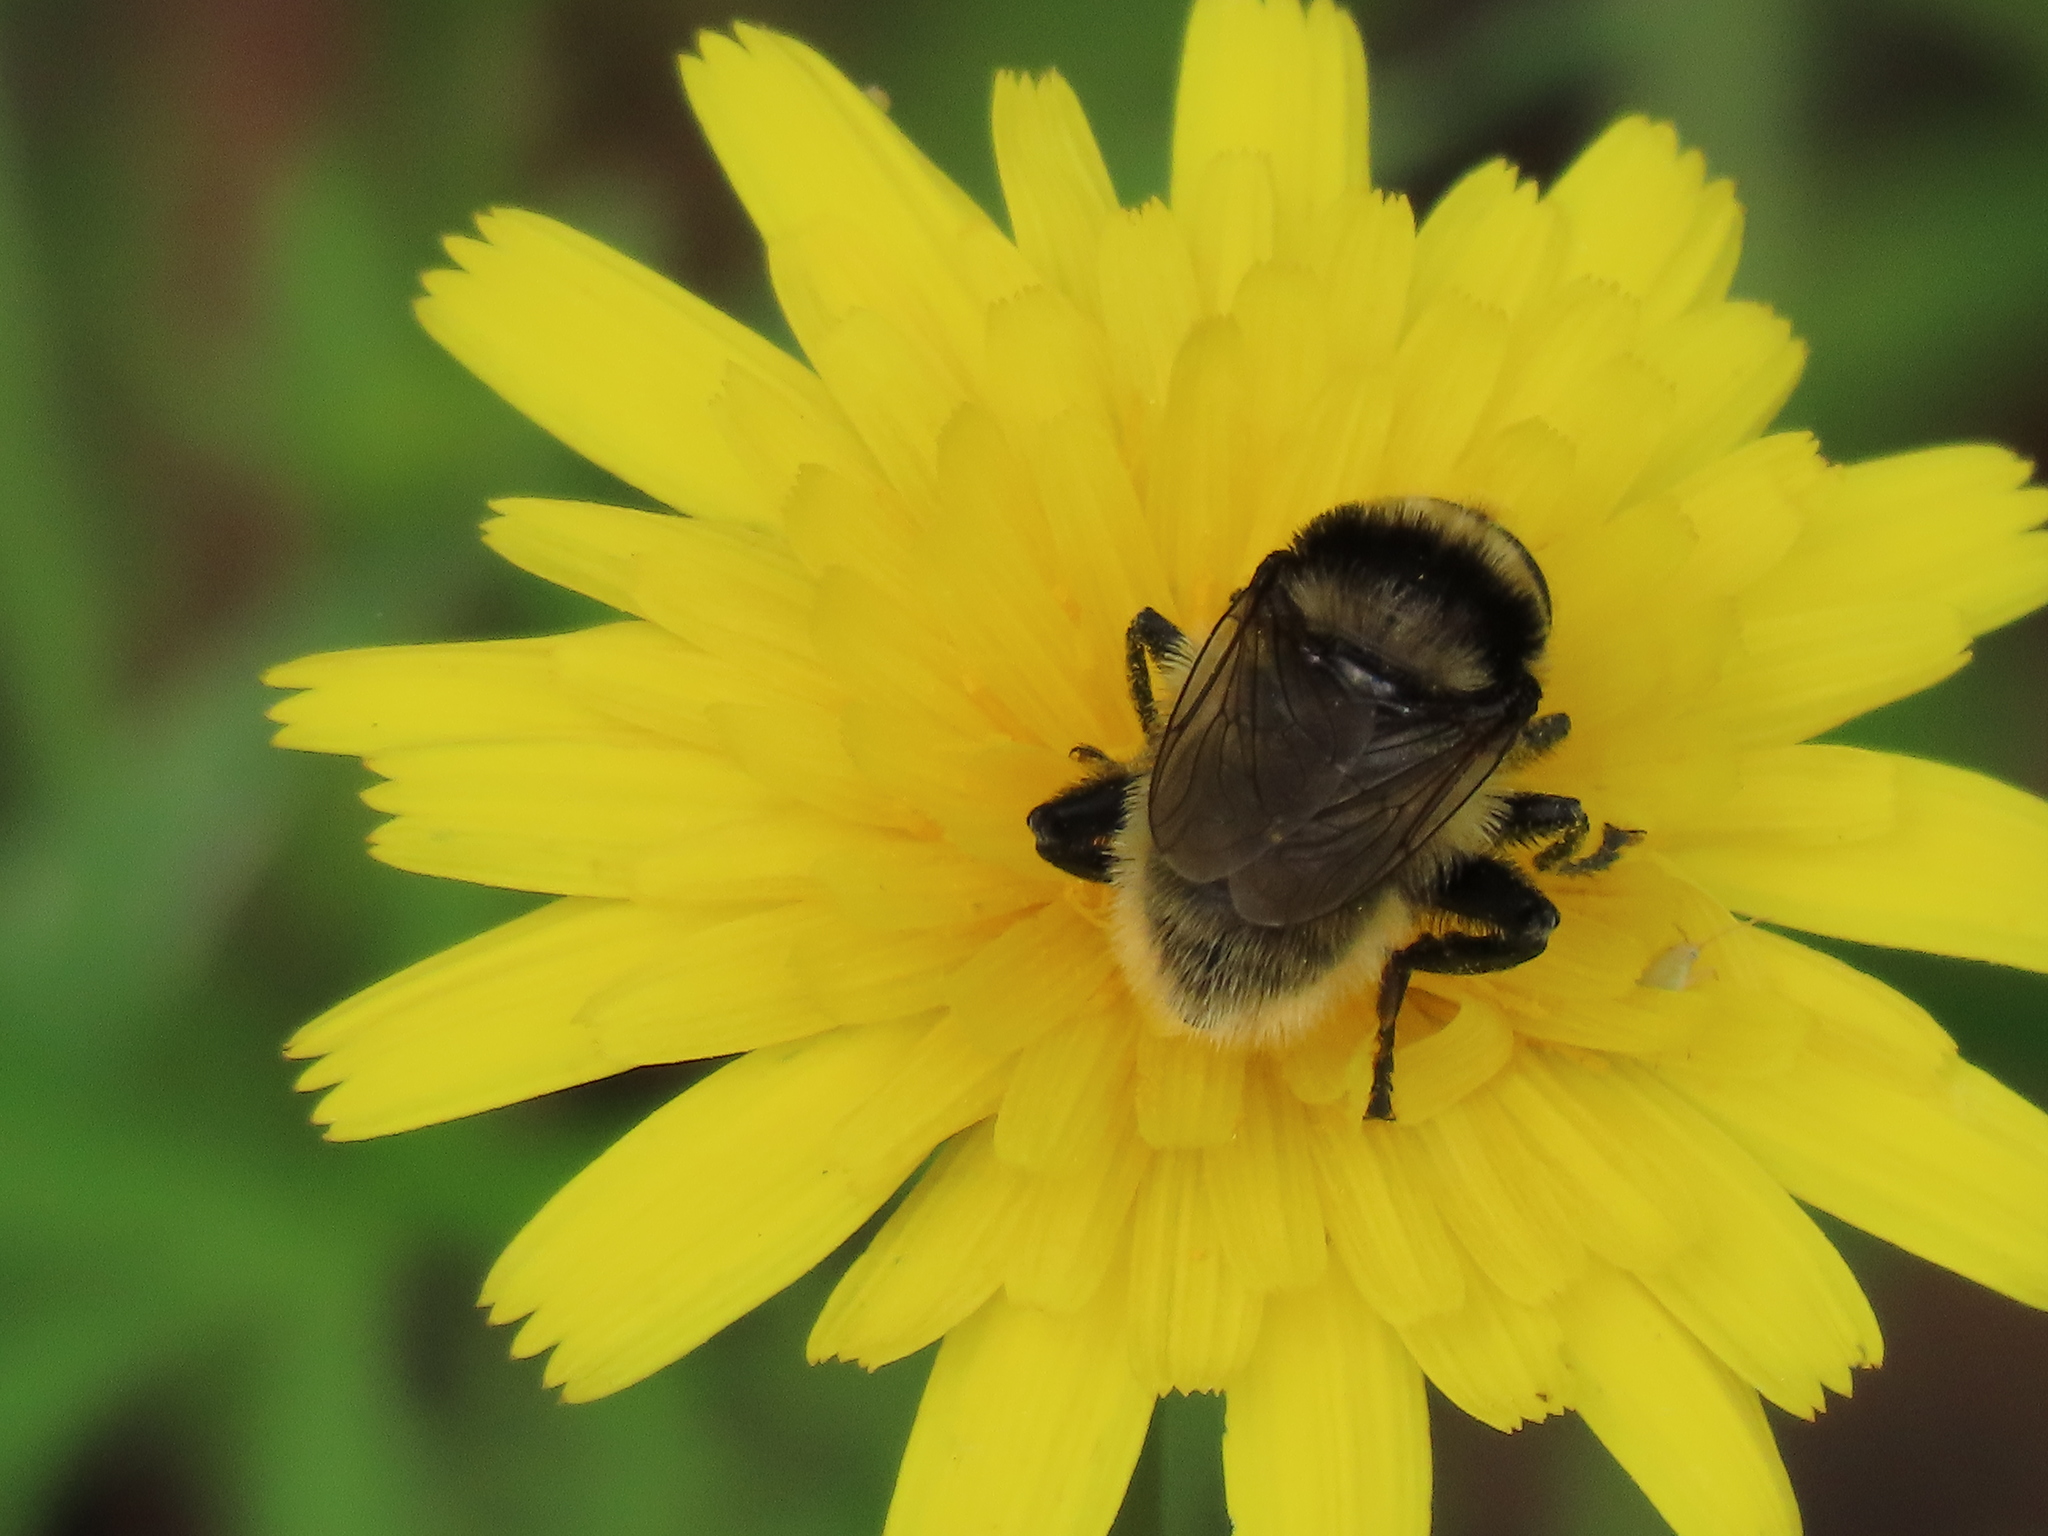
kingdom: Animalia
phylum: Arthropoda
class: Insecta
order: Diptera
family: Syrphidae
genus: Merodon
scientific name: Merodon equestris
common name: Greater bulb-fly
